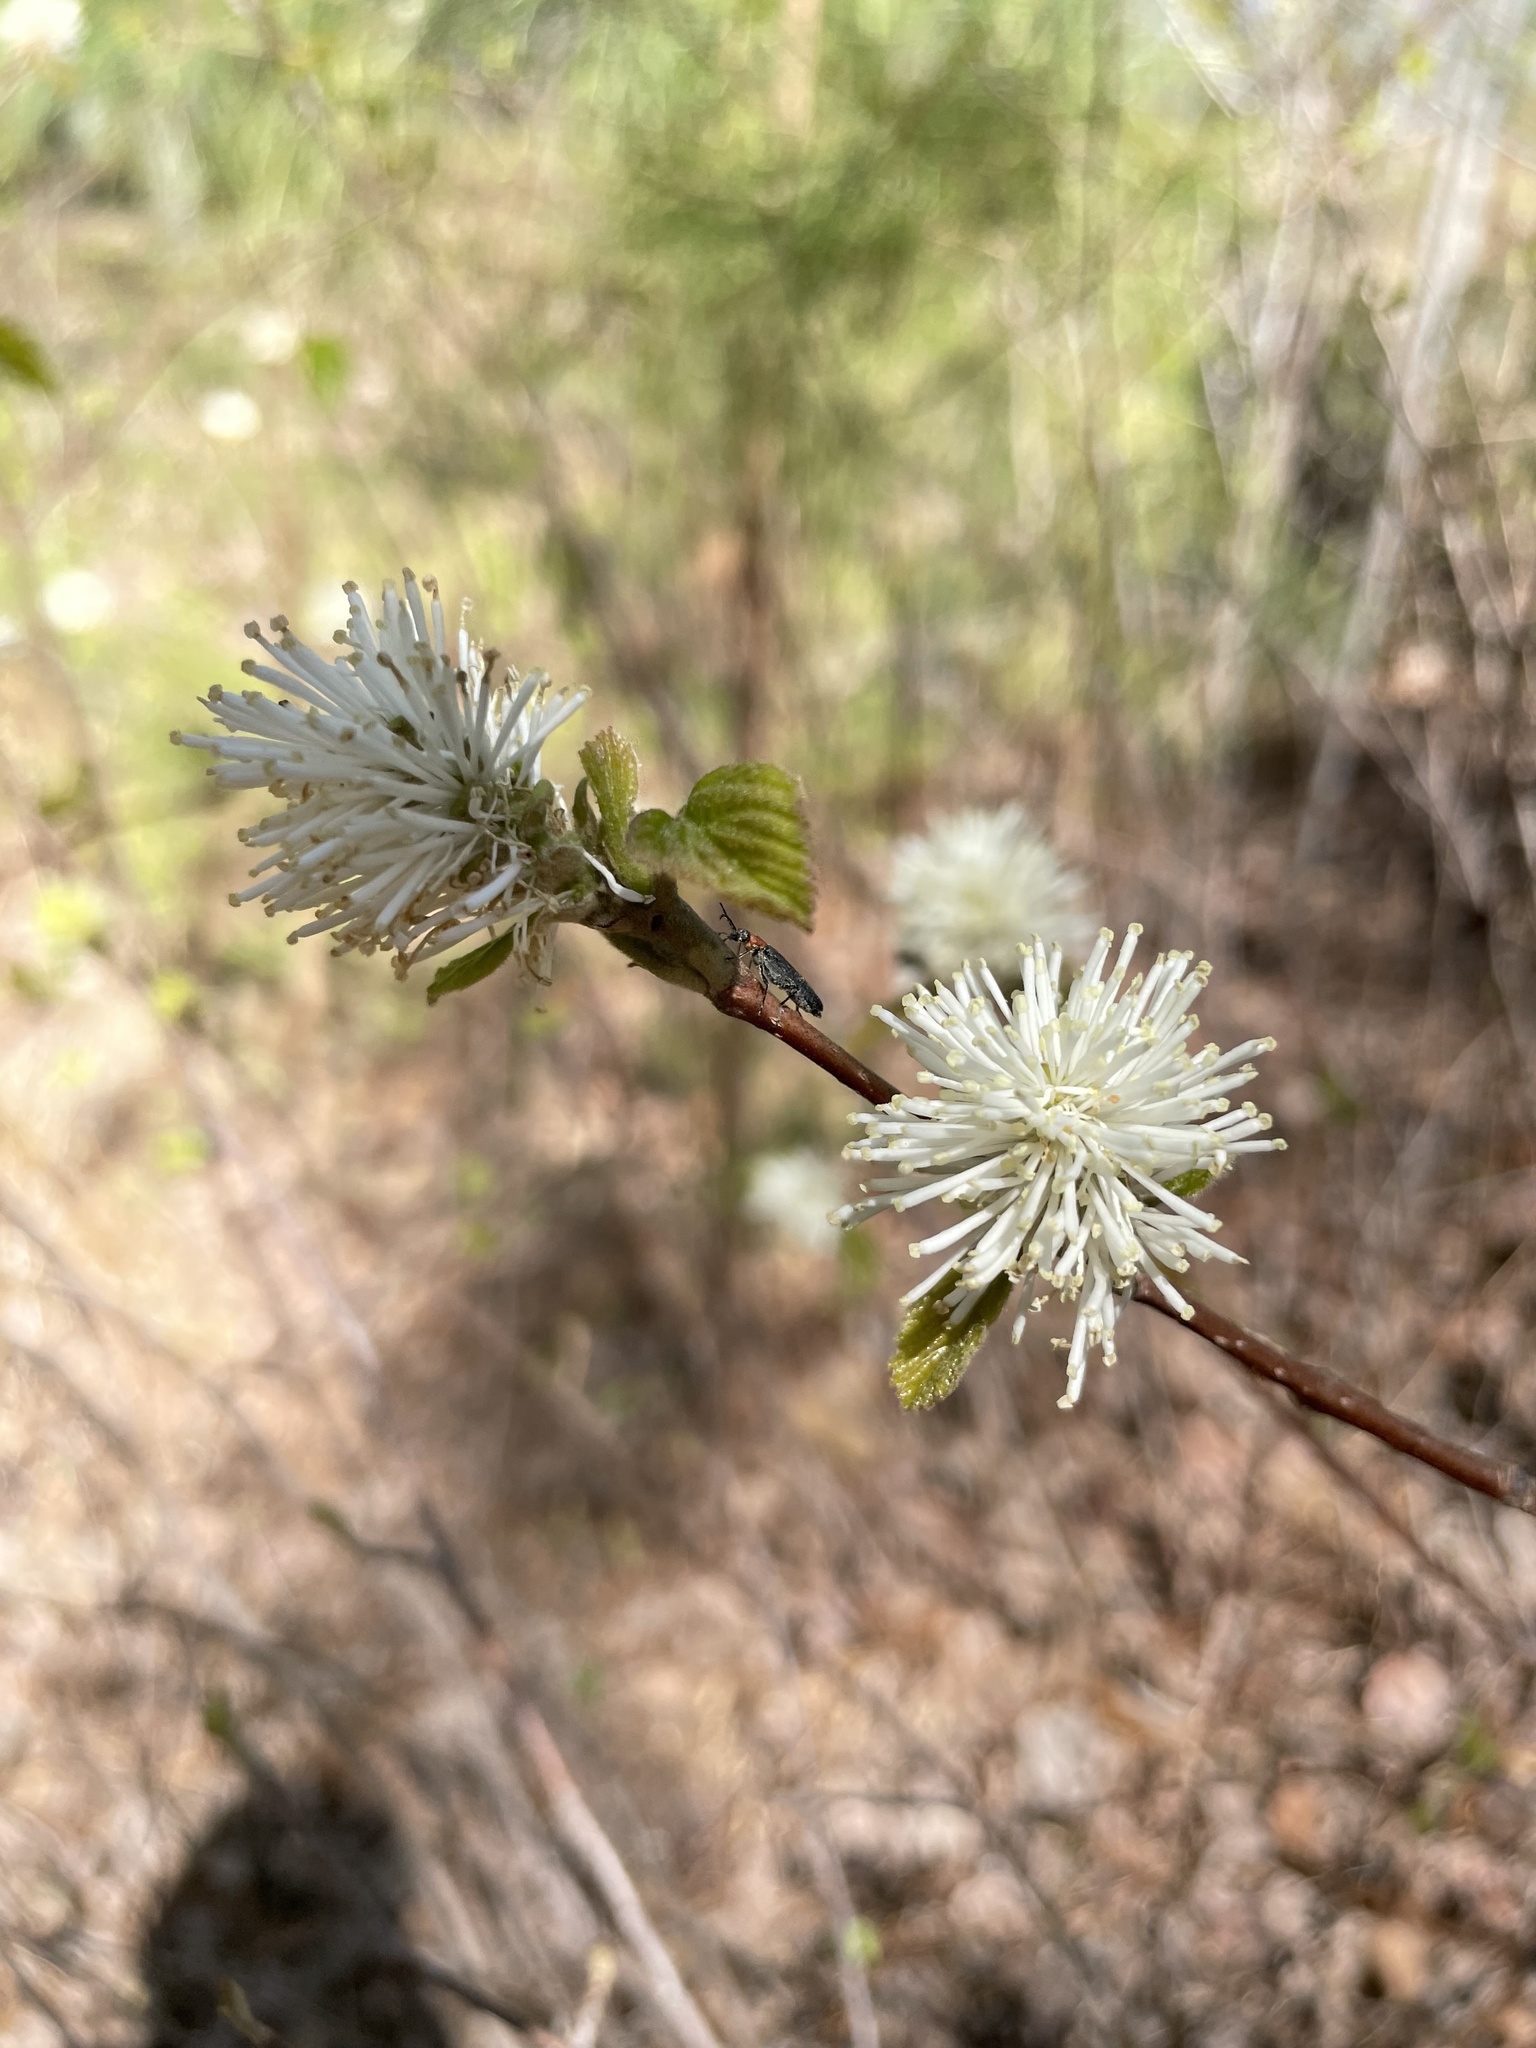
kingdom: Plantae
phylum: Tracheophyta
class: Magnoliopsida
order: Saxifragales
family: Hamamelidaceae
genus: Fothergilla
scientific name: Fothergilla latifolia
